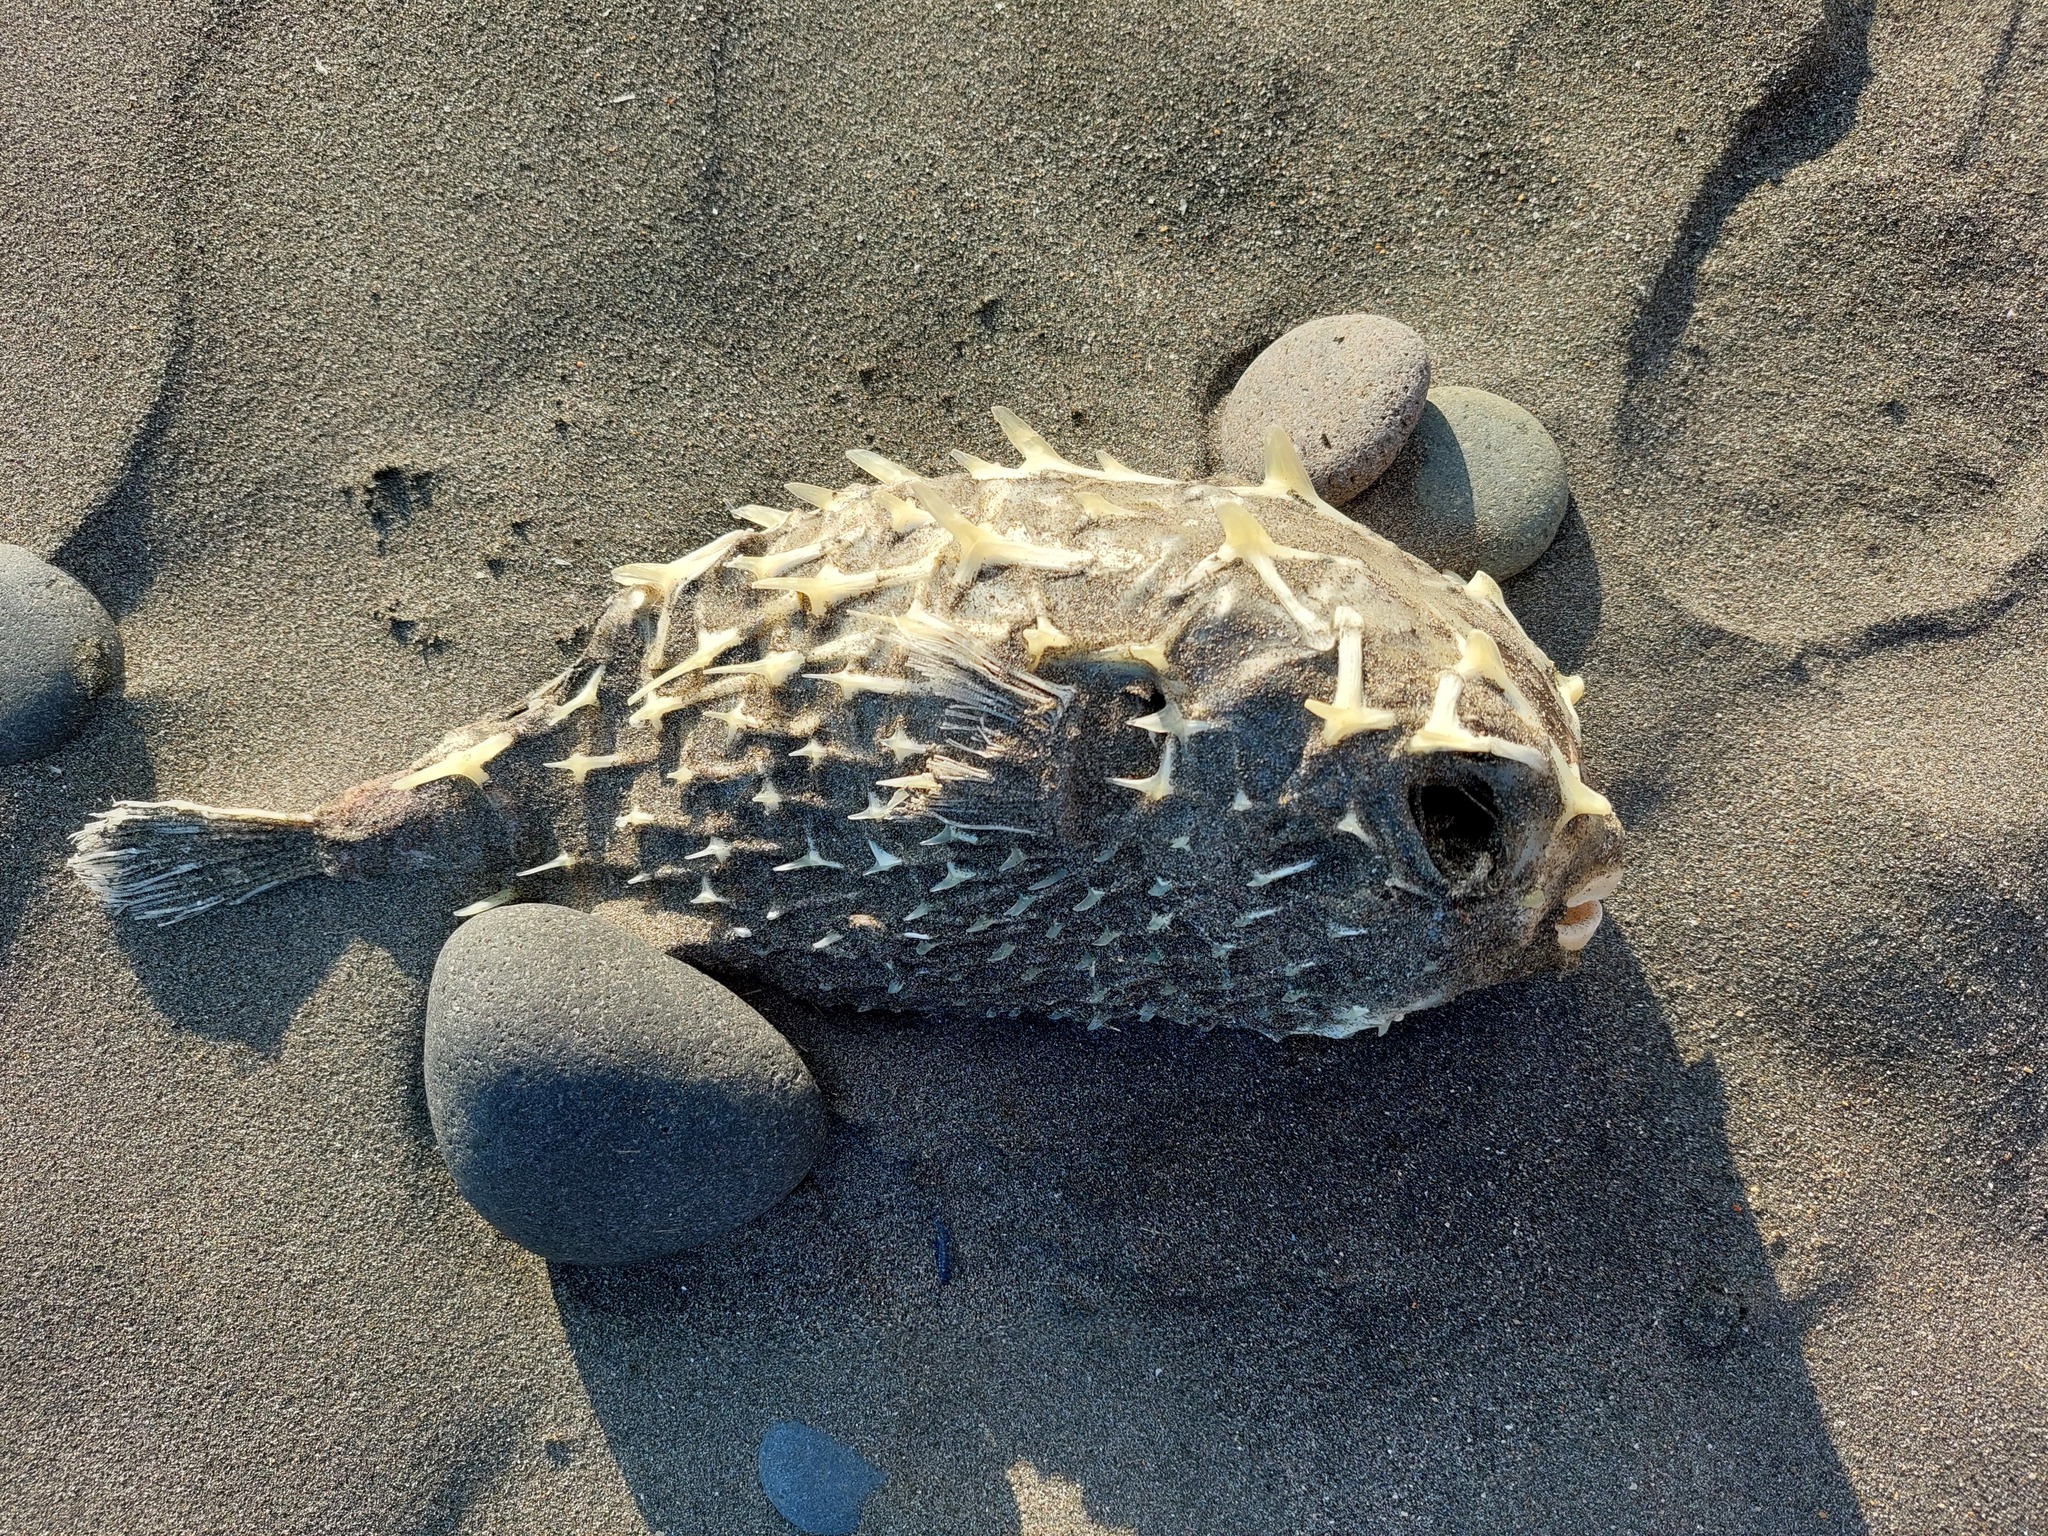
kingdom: Animalia
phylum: Chordata
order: Tetraodontiformes
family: Diodontidae
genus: Allomycterus
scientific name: Allomycterus pilatus
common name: No common name
